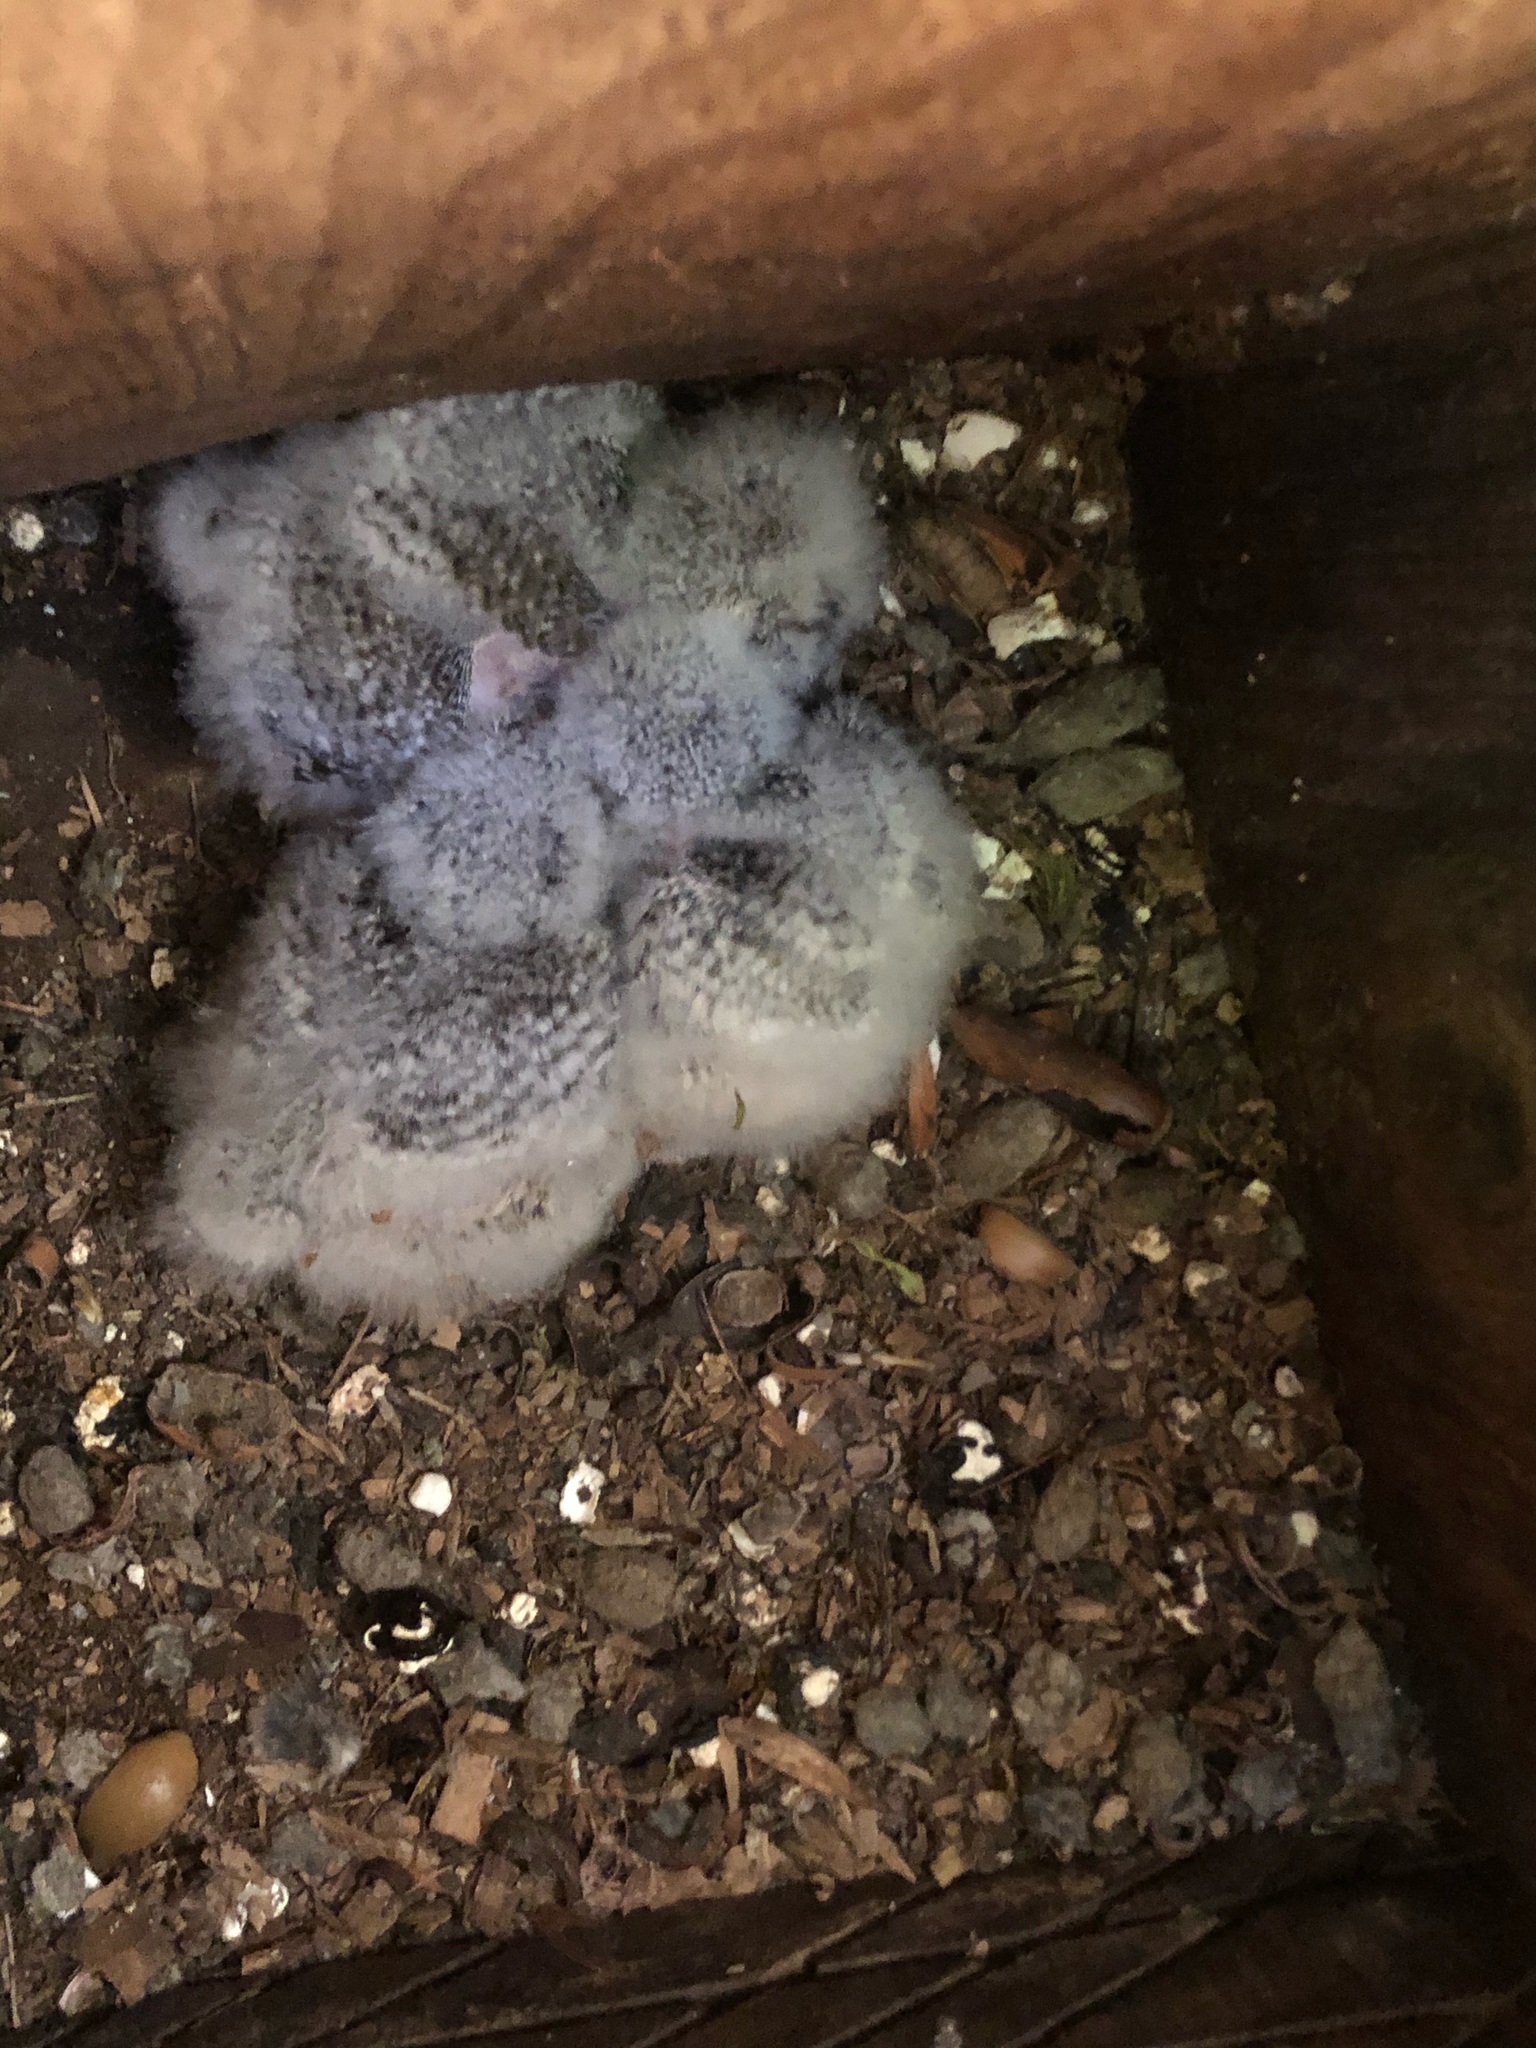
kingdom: Animalia
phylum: Chordata
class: Aves
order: Strigiformes
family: Strigidae
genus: Megascops
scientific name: Megascops kennicottii
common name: Western screech-owl
